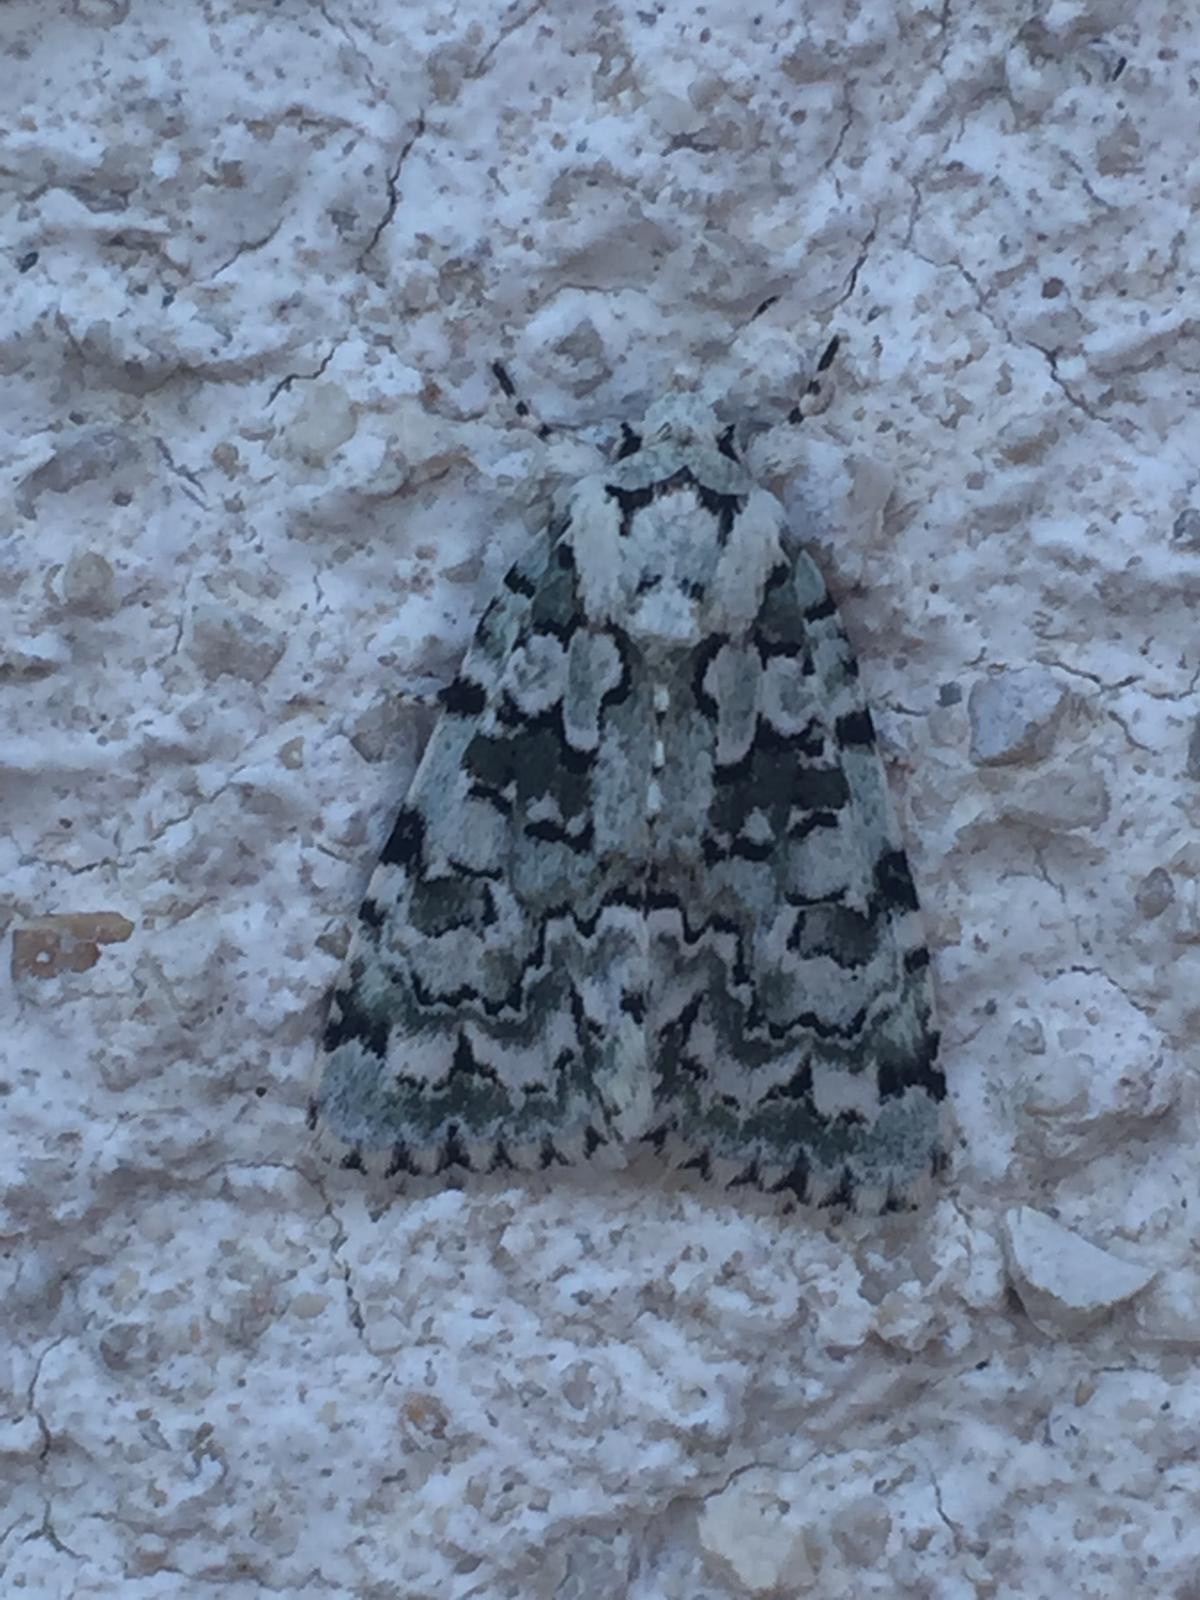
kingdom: Animalia
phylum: Arthropoda
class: Insecta
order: Lepidoptera
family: Noctuidae
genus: Nyctobrya
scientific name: Nyctobrya muralis
